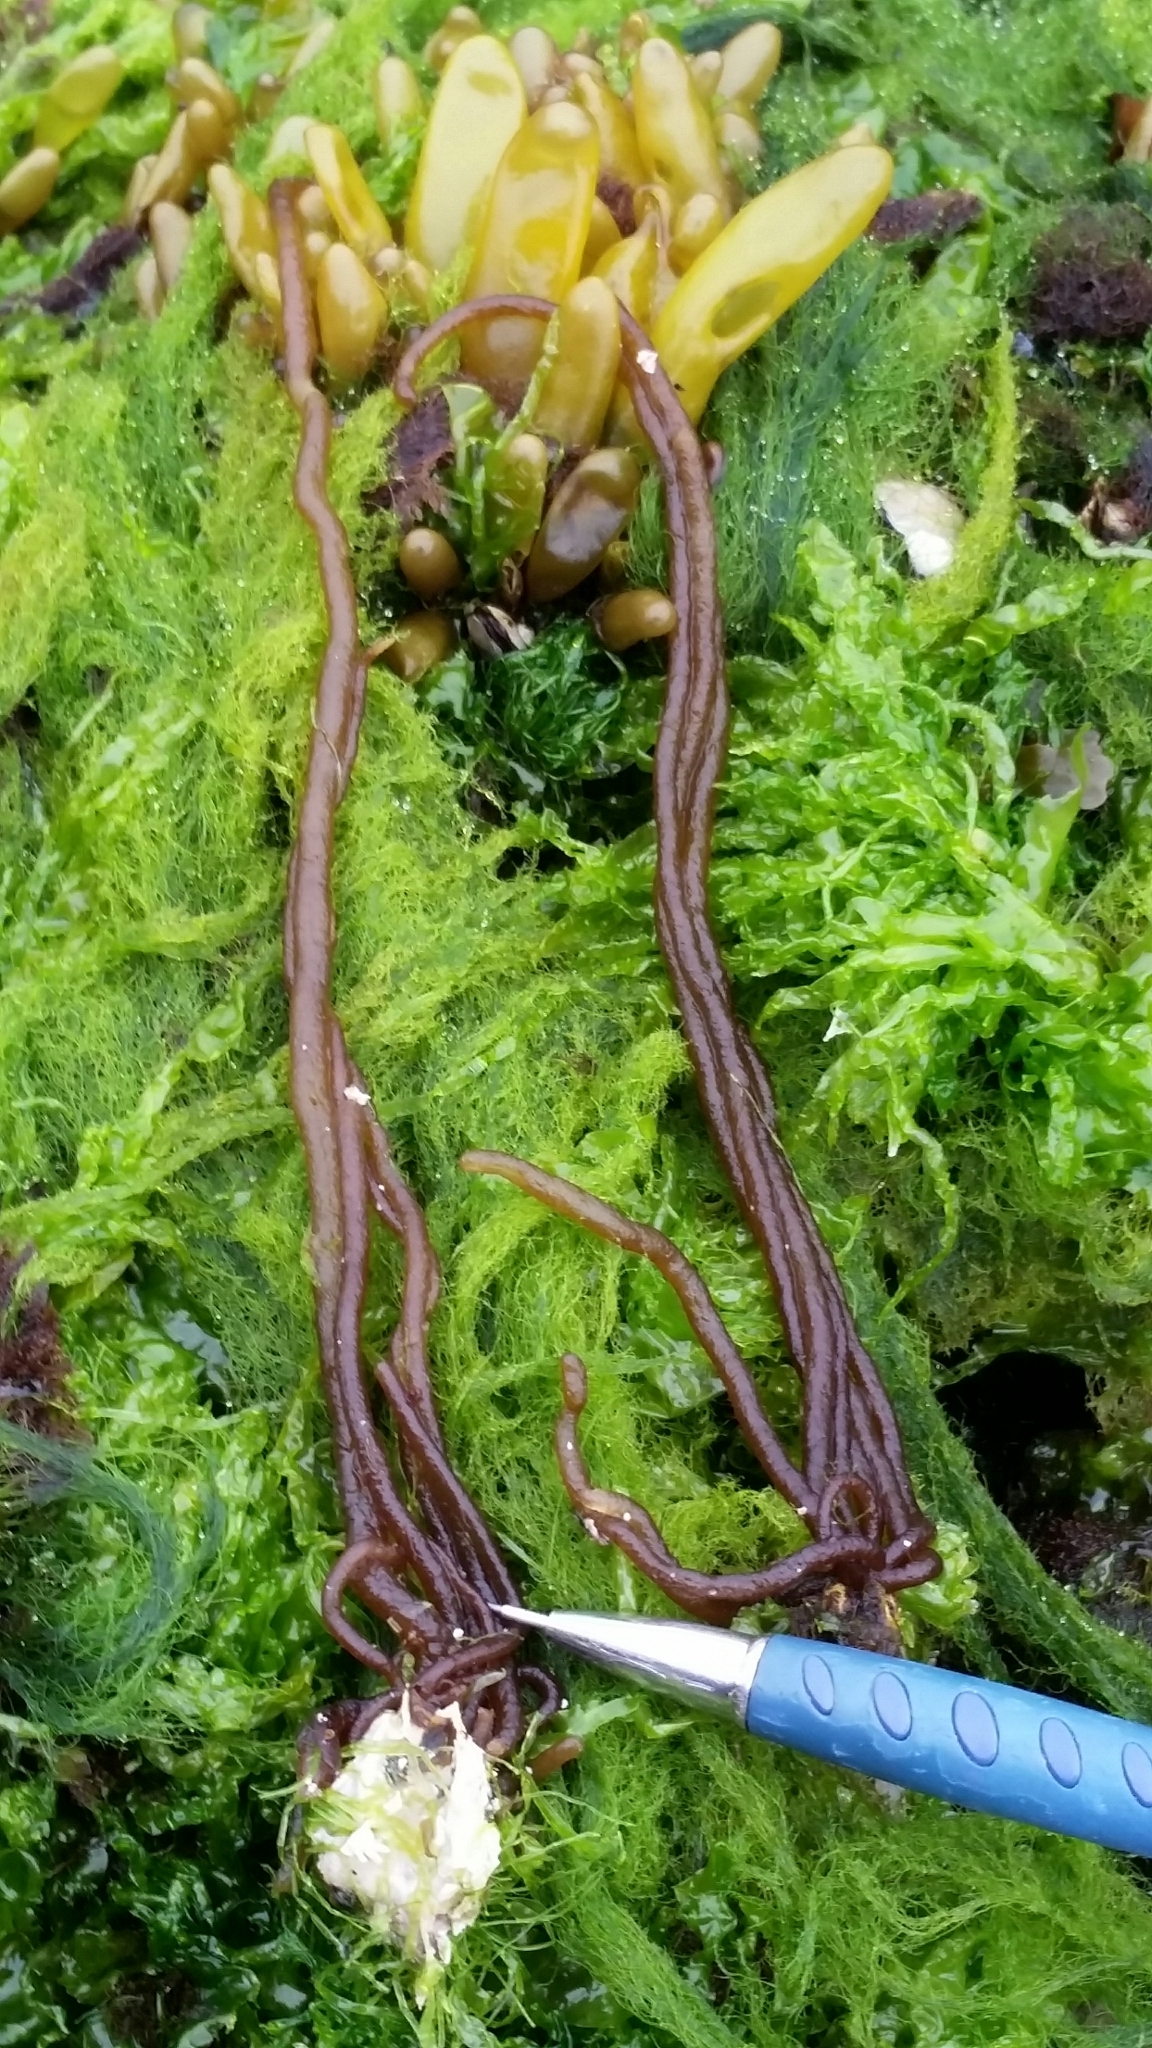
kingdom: Plantae
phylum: Rhodophyta
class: Florideophyceae
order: Nemaliales
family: Nemaliaceae
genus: Nemalion
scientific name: Nemalion elminthoides
